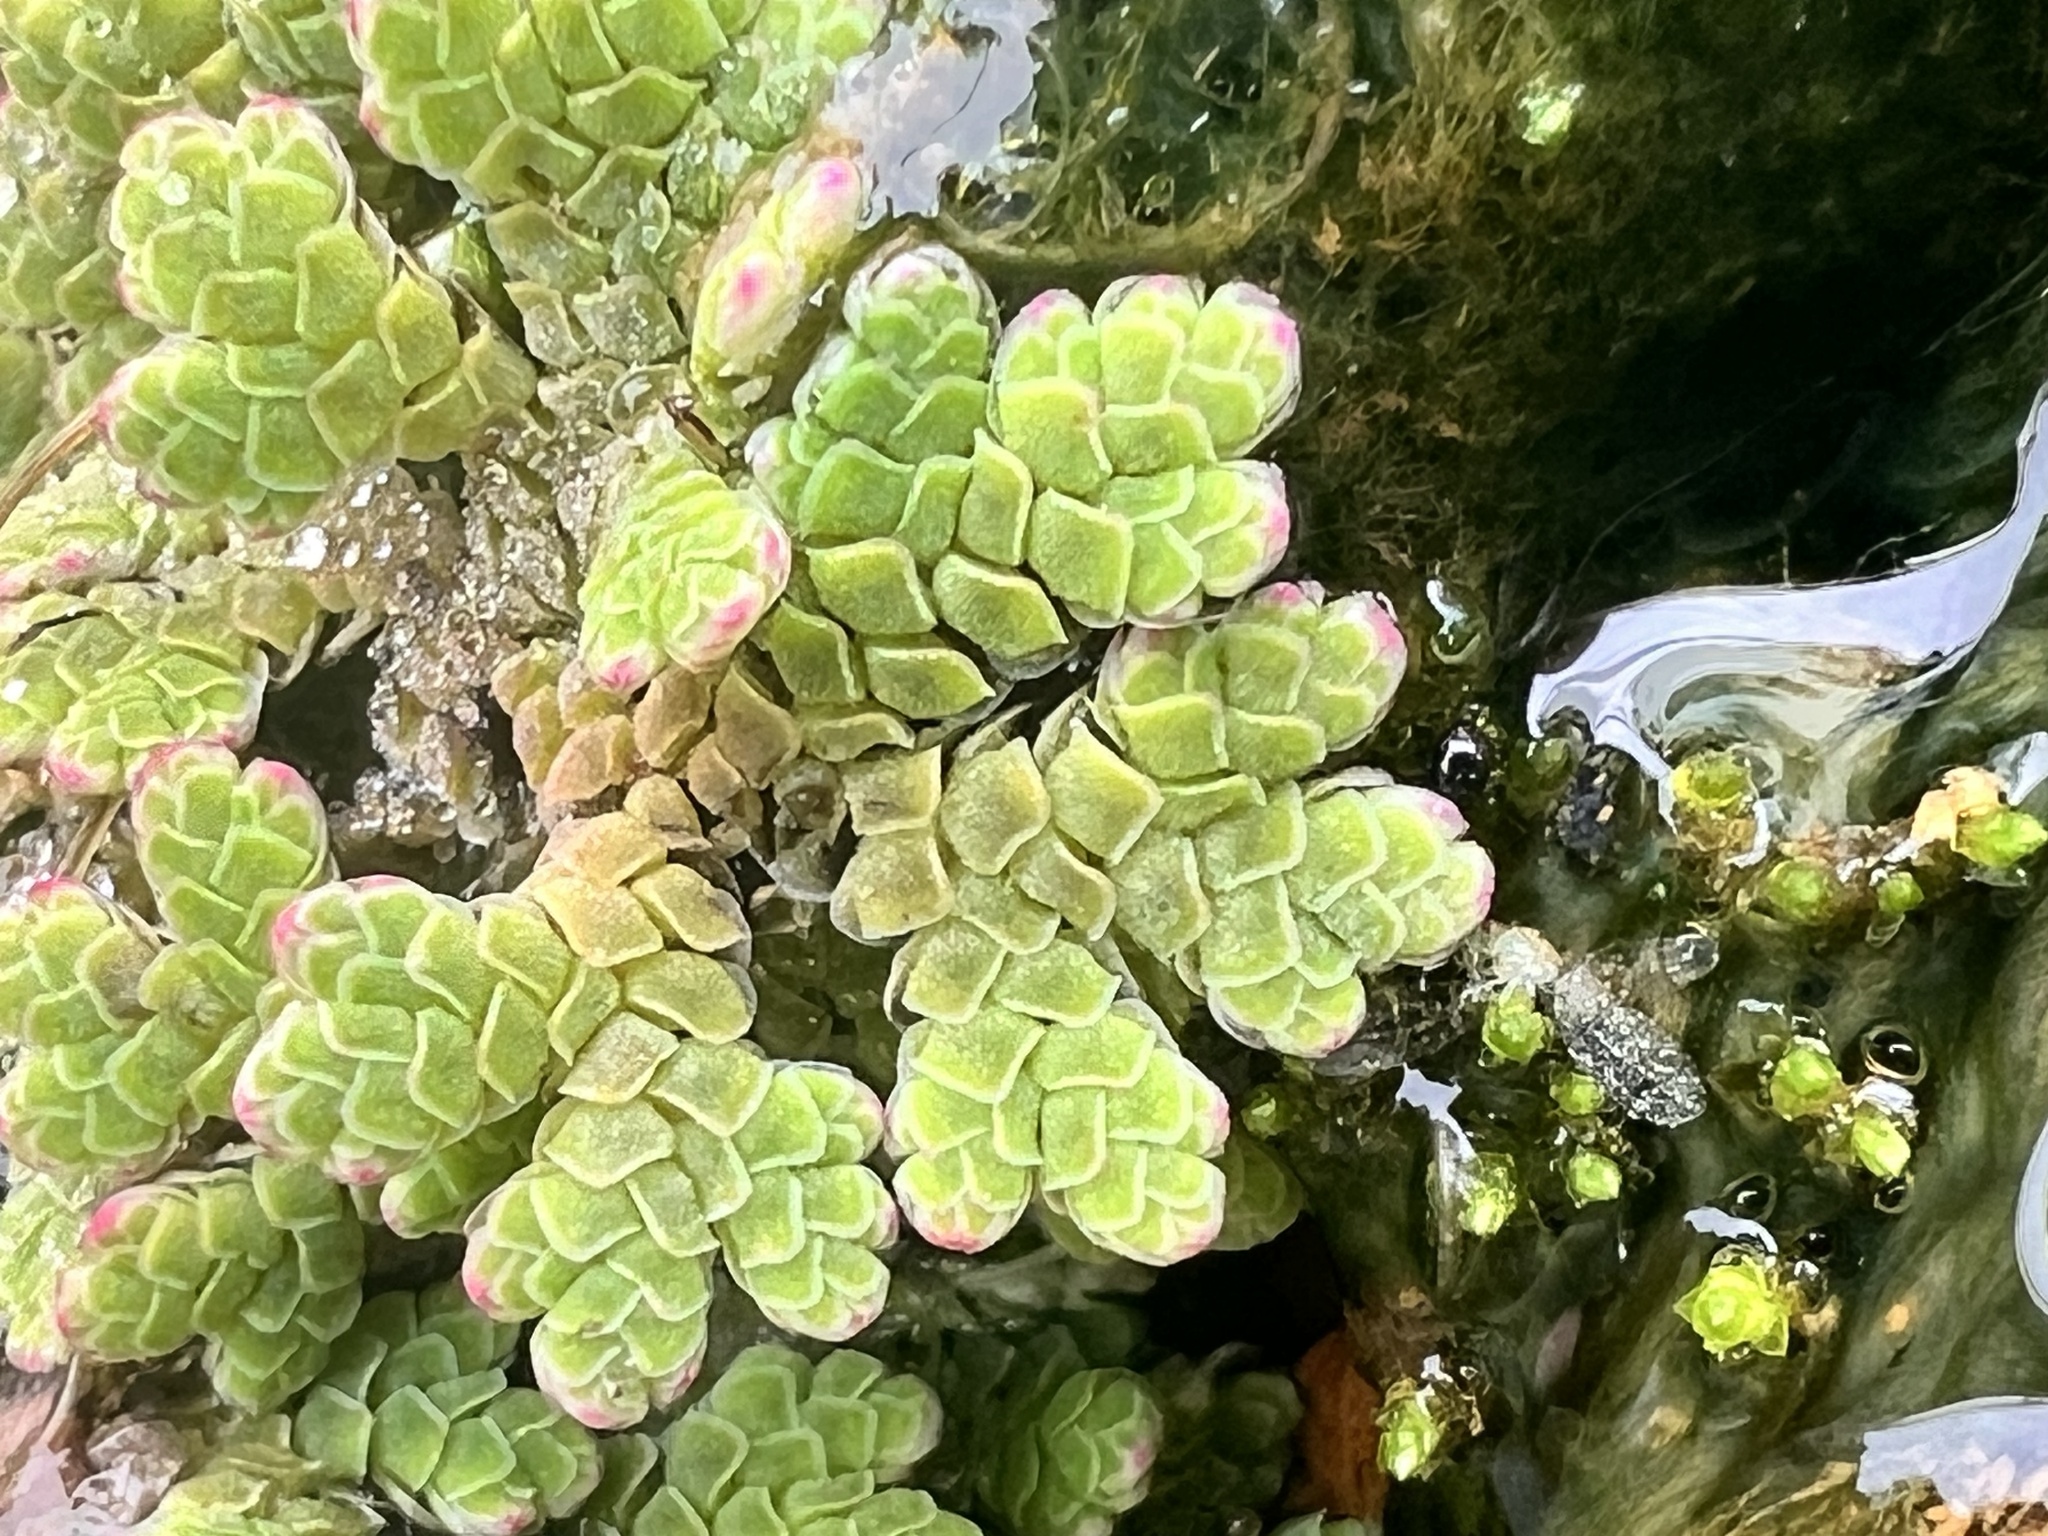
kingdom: Plantae
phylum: Tracheophyta
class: Polypodiopsida
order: Salviniales
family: Salviniaceae
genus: Azolla
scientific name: Azolla rubra
